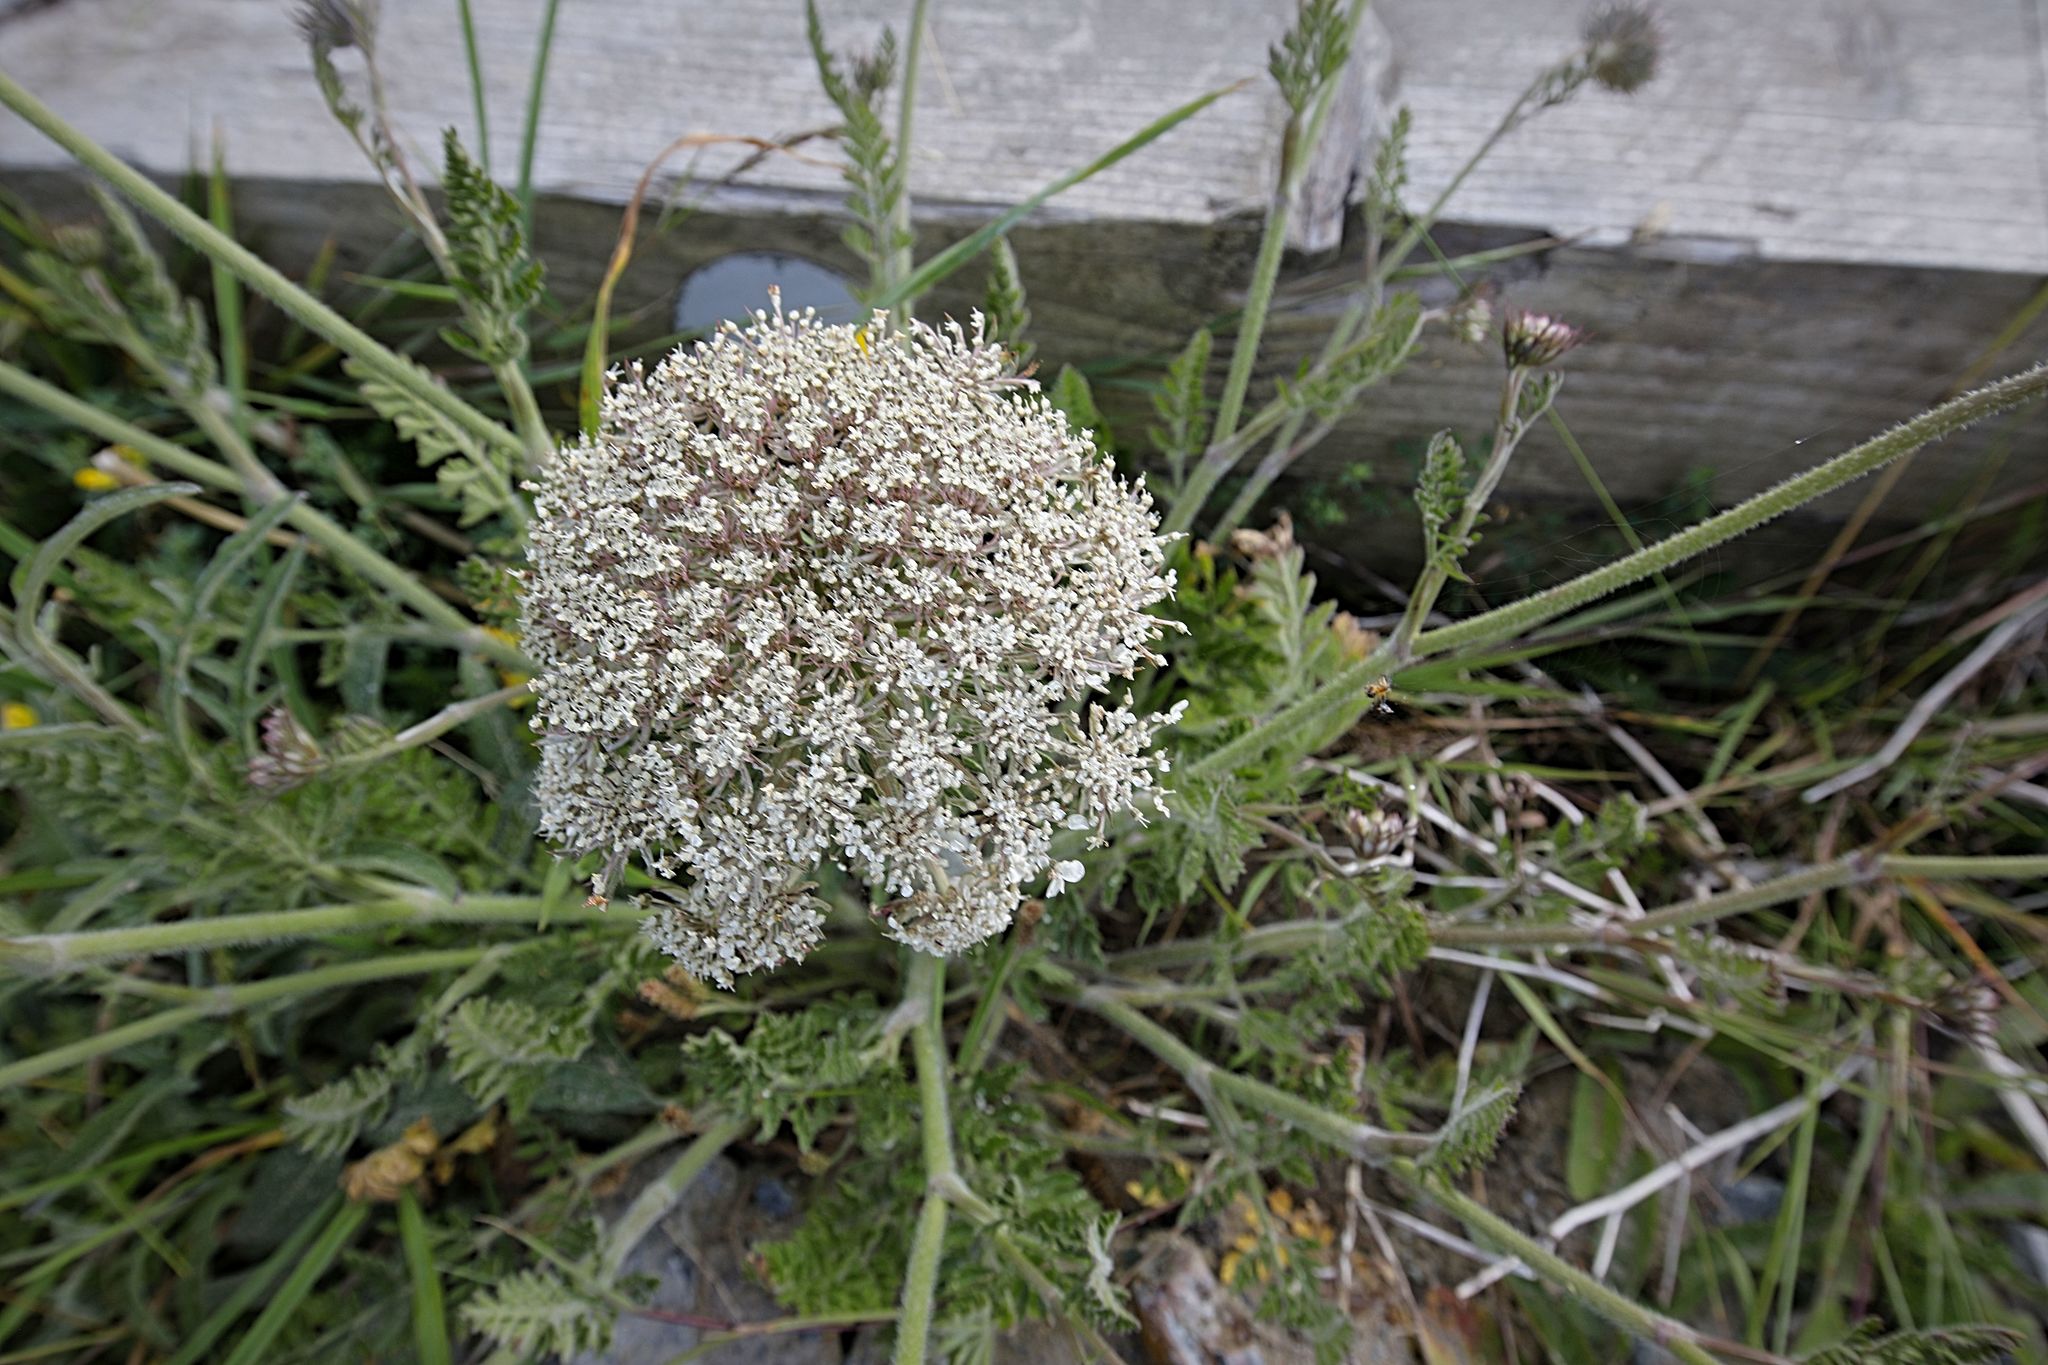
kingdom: Plantae
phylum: Tracheophyta
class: Magnoliopsida
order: Apiales
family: Apiaceae
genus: Daucus
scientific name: Daucus carota
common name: Wild carrot
